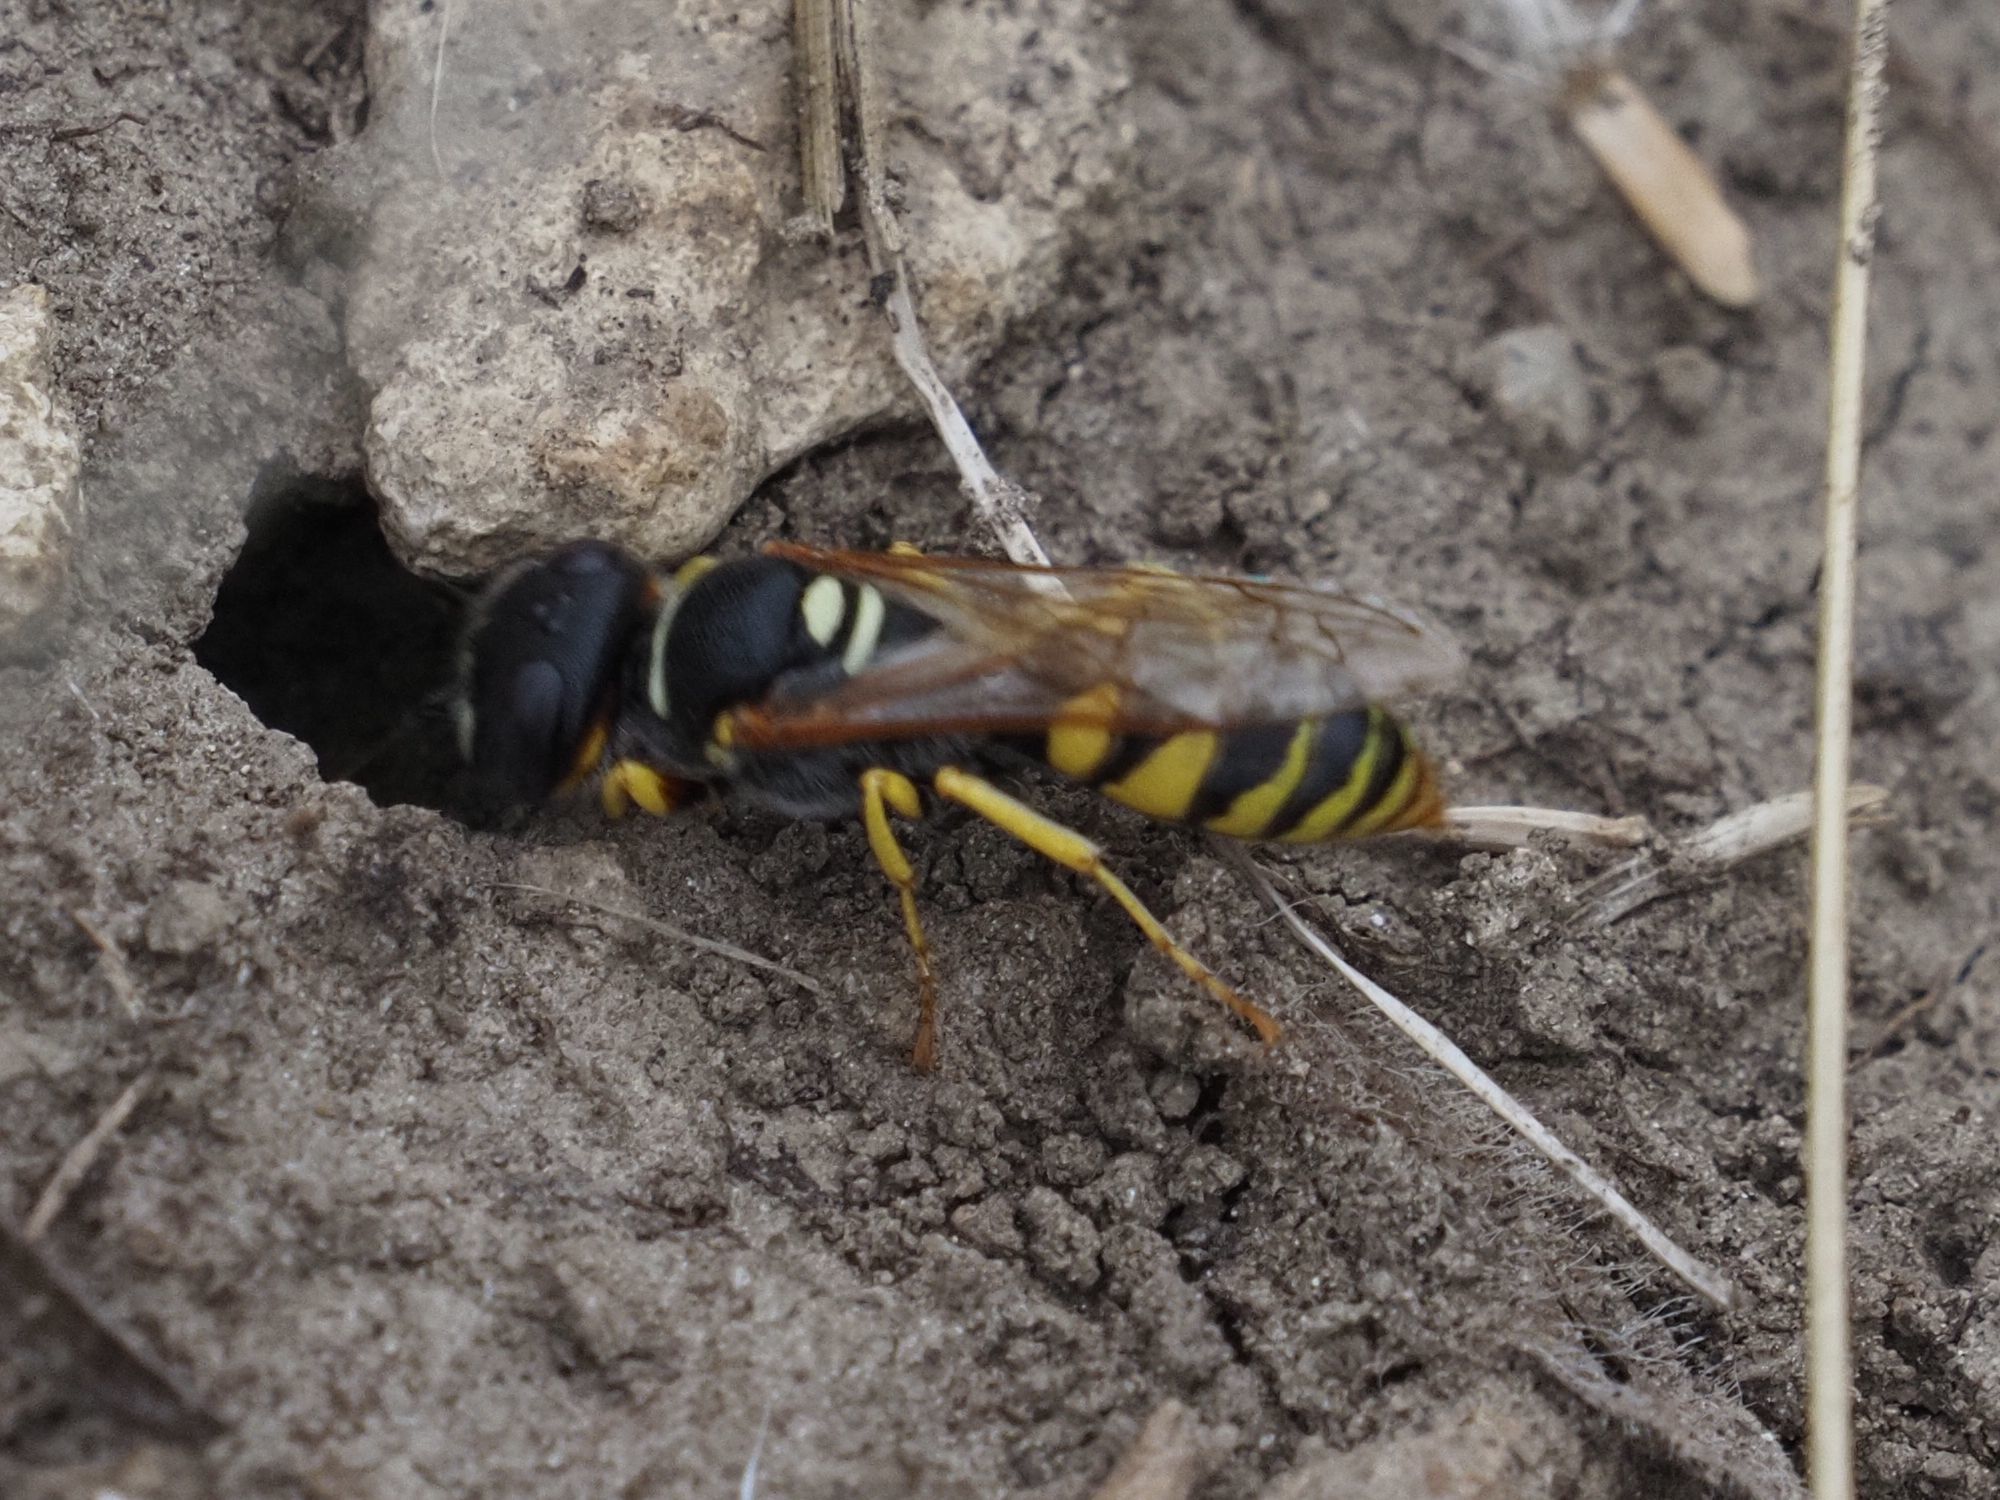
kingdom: Animalia
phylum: Arthropoda
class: Insecta
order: Hymenoptera
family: Crabronidae
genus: Philanthus
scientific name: Philanthus triangulum
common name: Bee wolf
